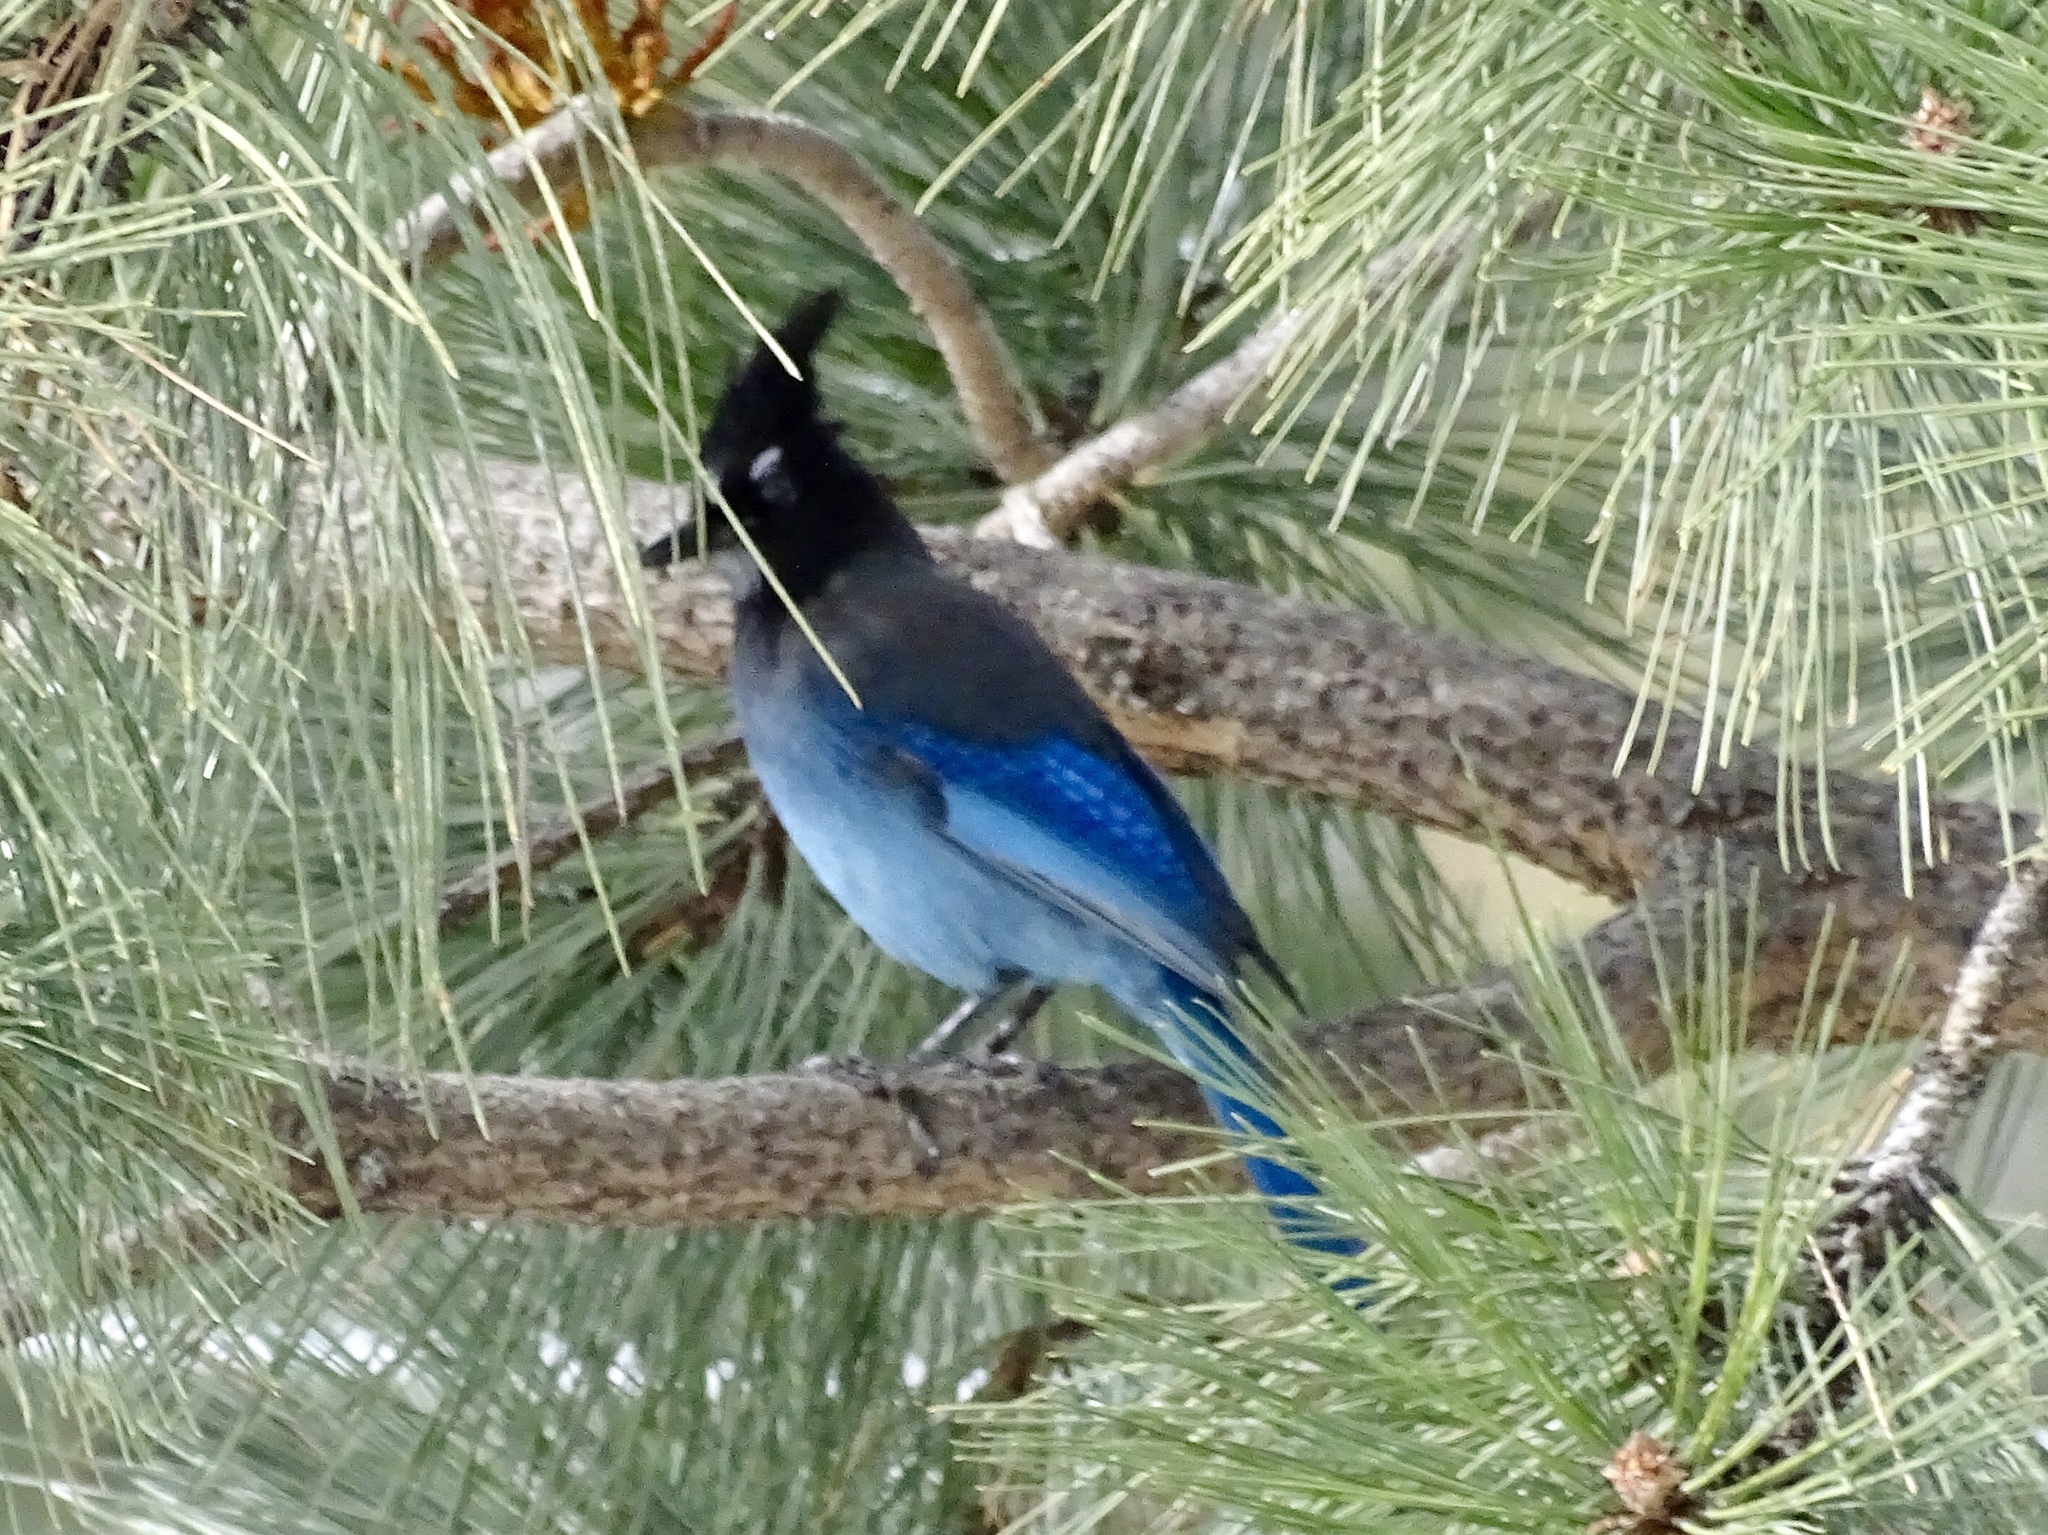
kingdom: Animalia
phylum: Chordata
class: Aves
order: Passeriformes
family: Corvidae
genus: Cyanocitta
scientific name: Cyanocitta stelleri
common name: Steller's jay
